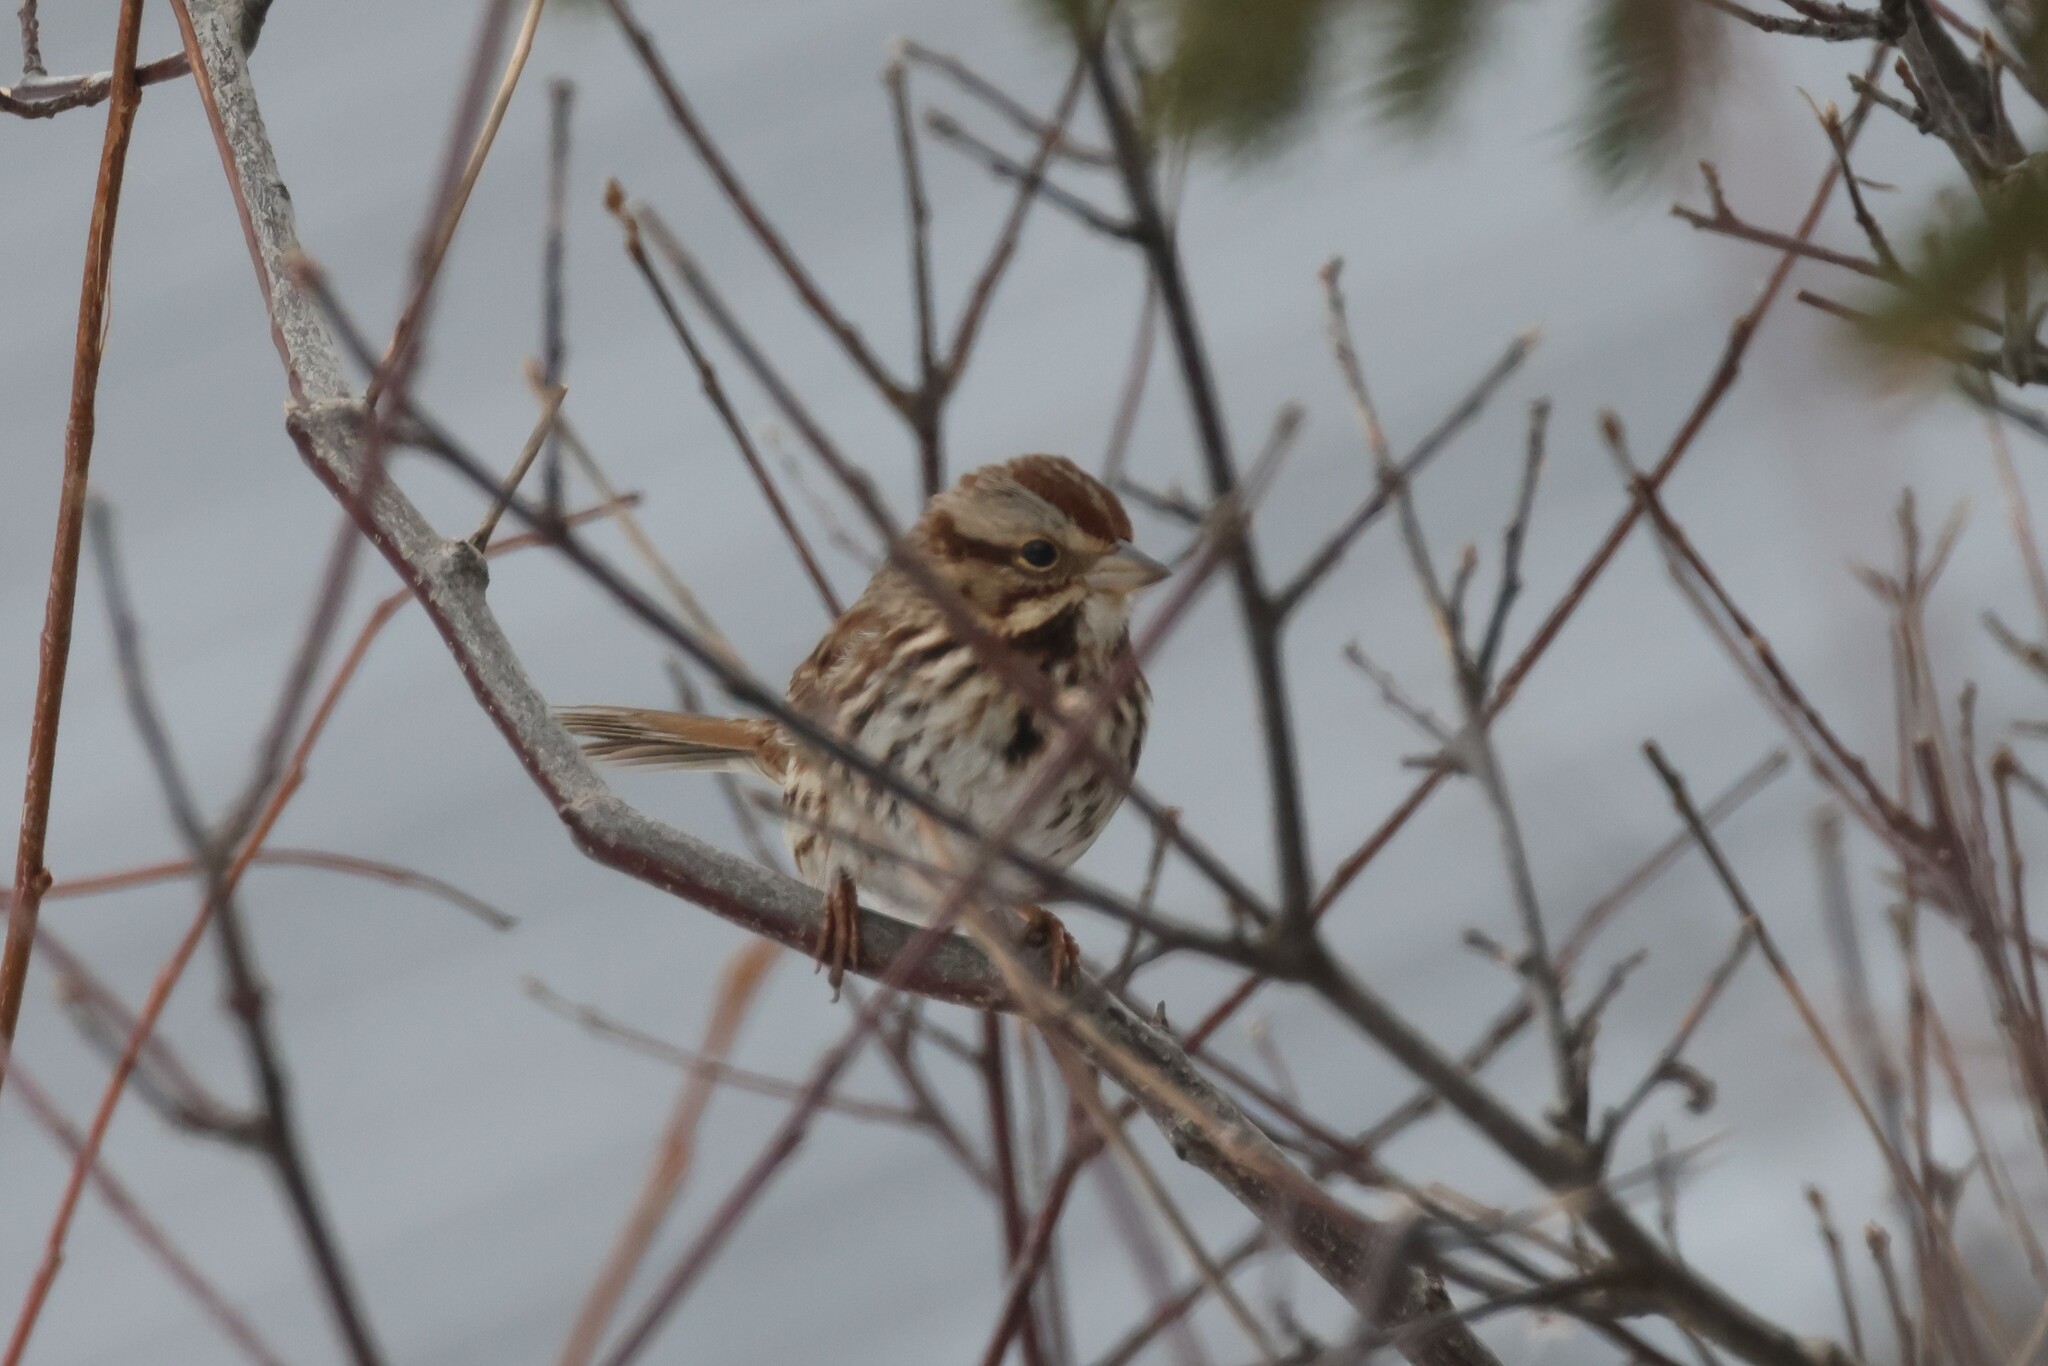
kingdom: Animalia
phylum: Chordata
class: Aves
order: Passeriformes
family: Passerellidae
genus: Melospiza
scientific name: Melospiza melodia
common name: Song sparrow
